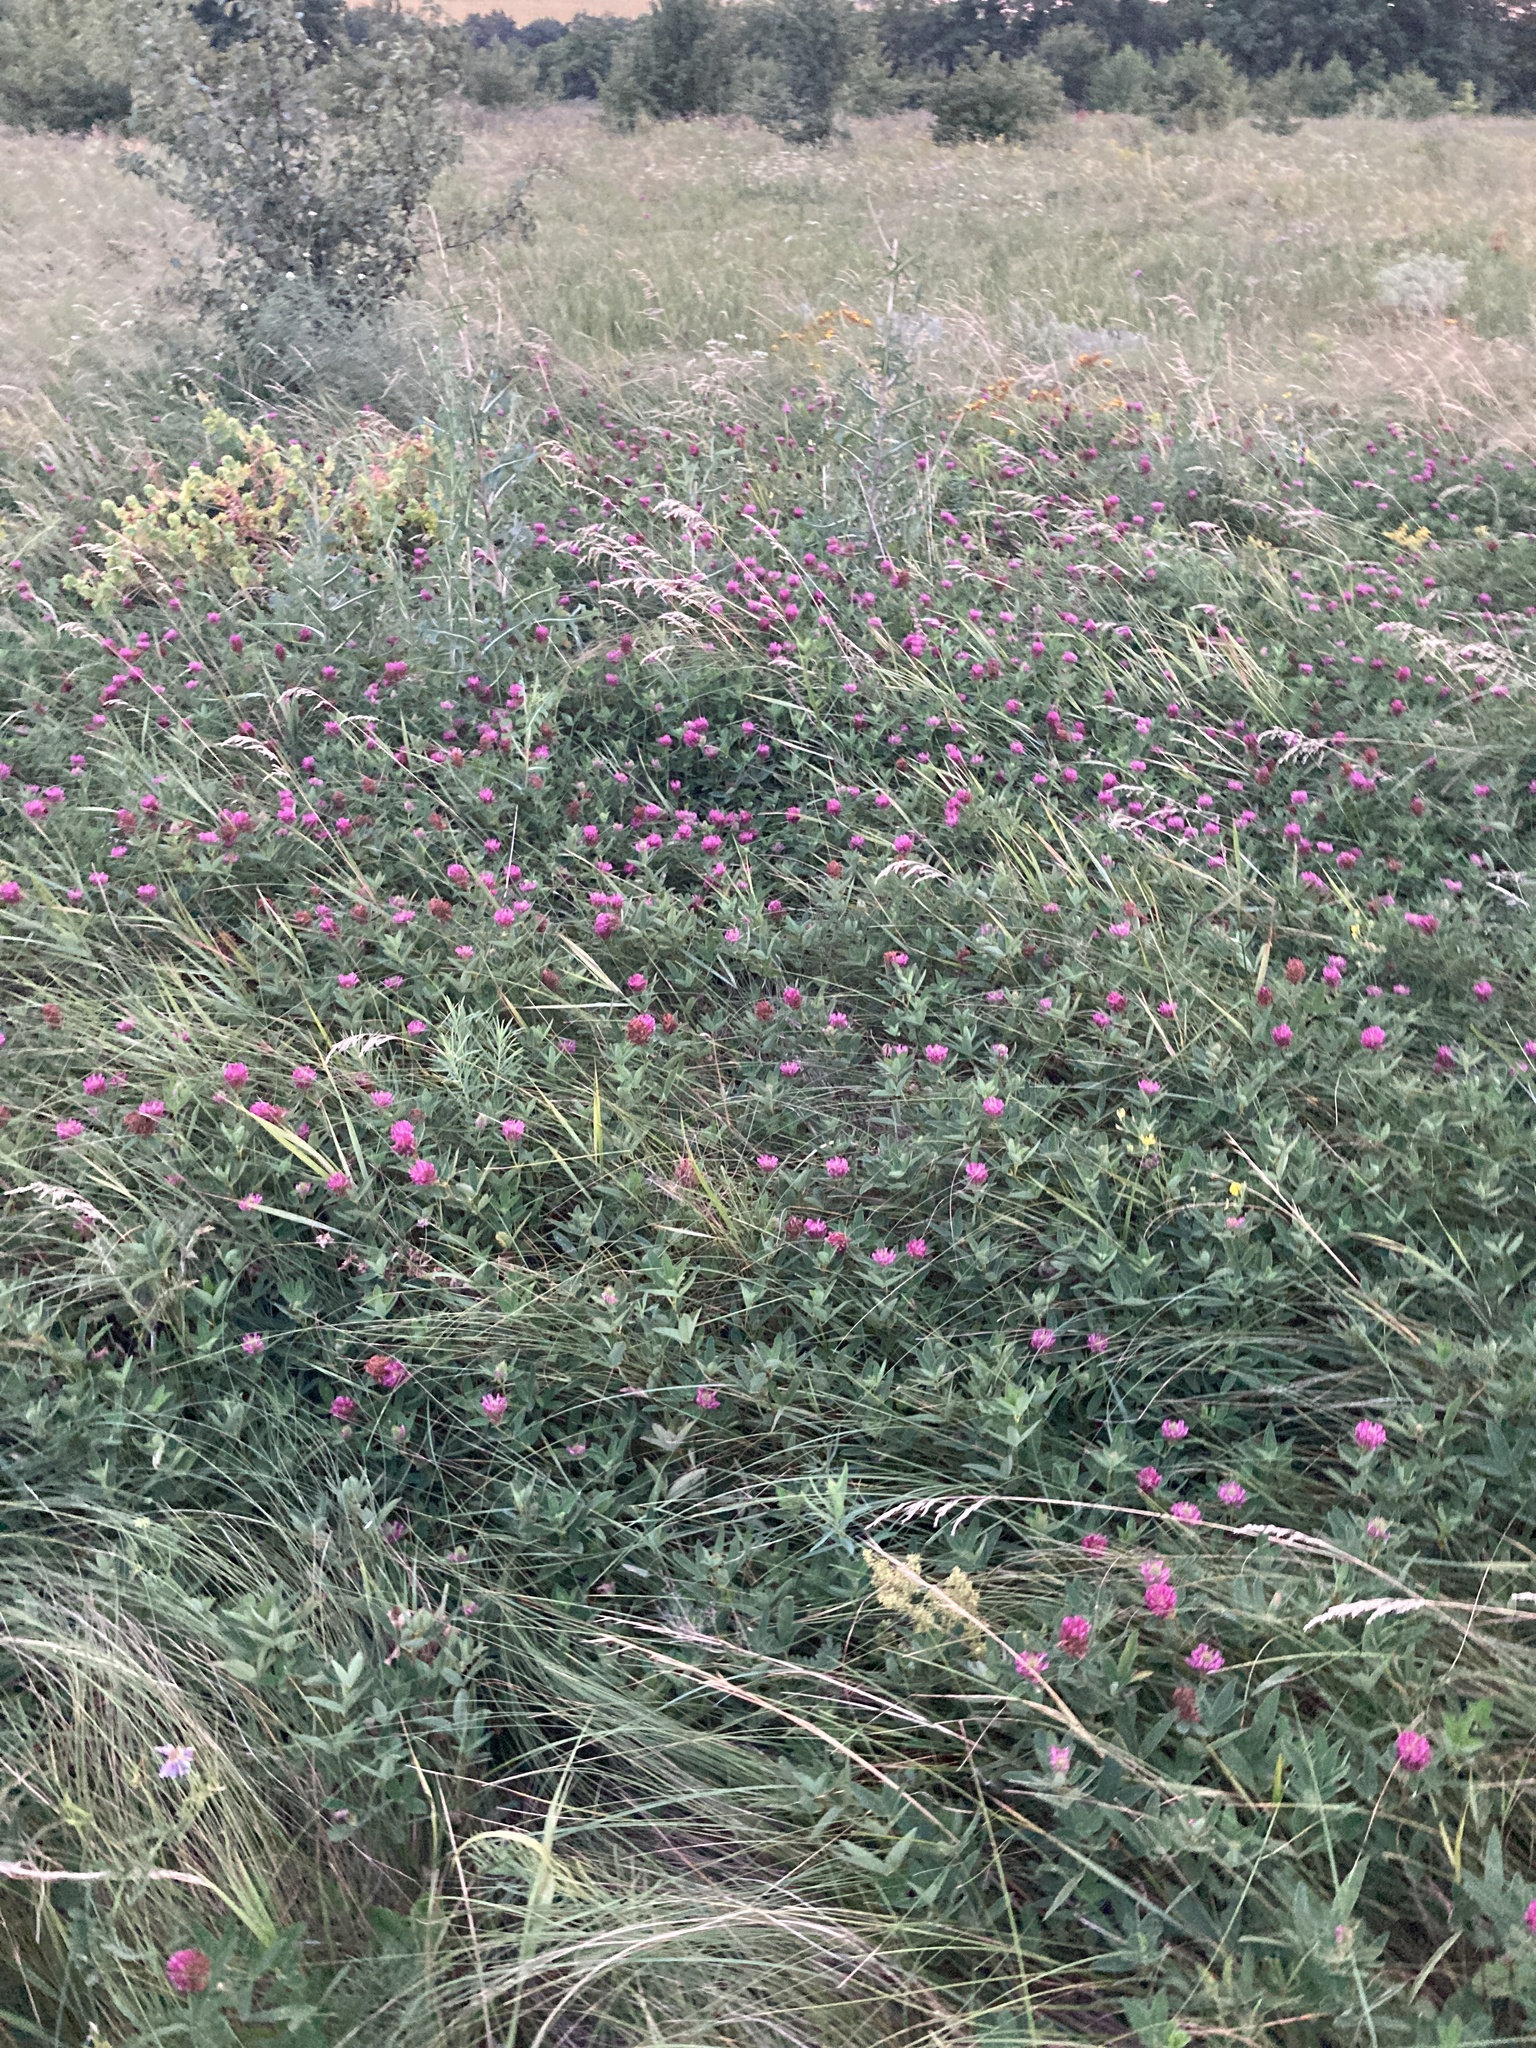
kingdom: Plantae
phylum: Tracheophyta
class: Magnoliopsida
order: Fabales
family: Fabaceae
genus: Trifolium
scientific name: Trifolium medium
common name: Zigzag clover
